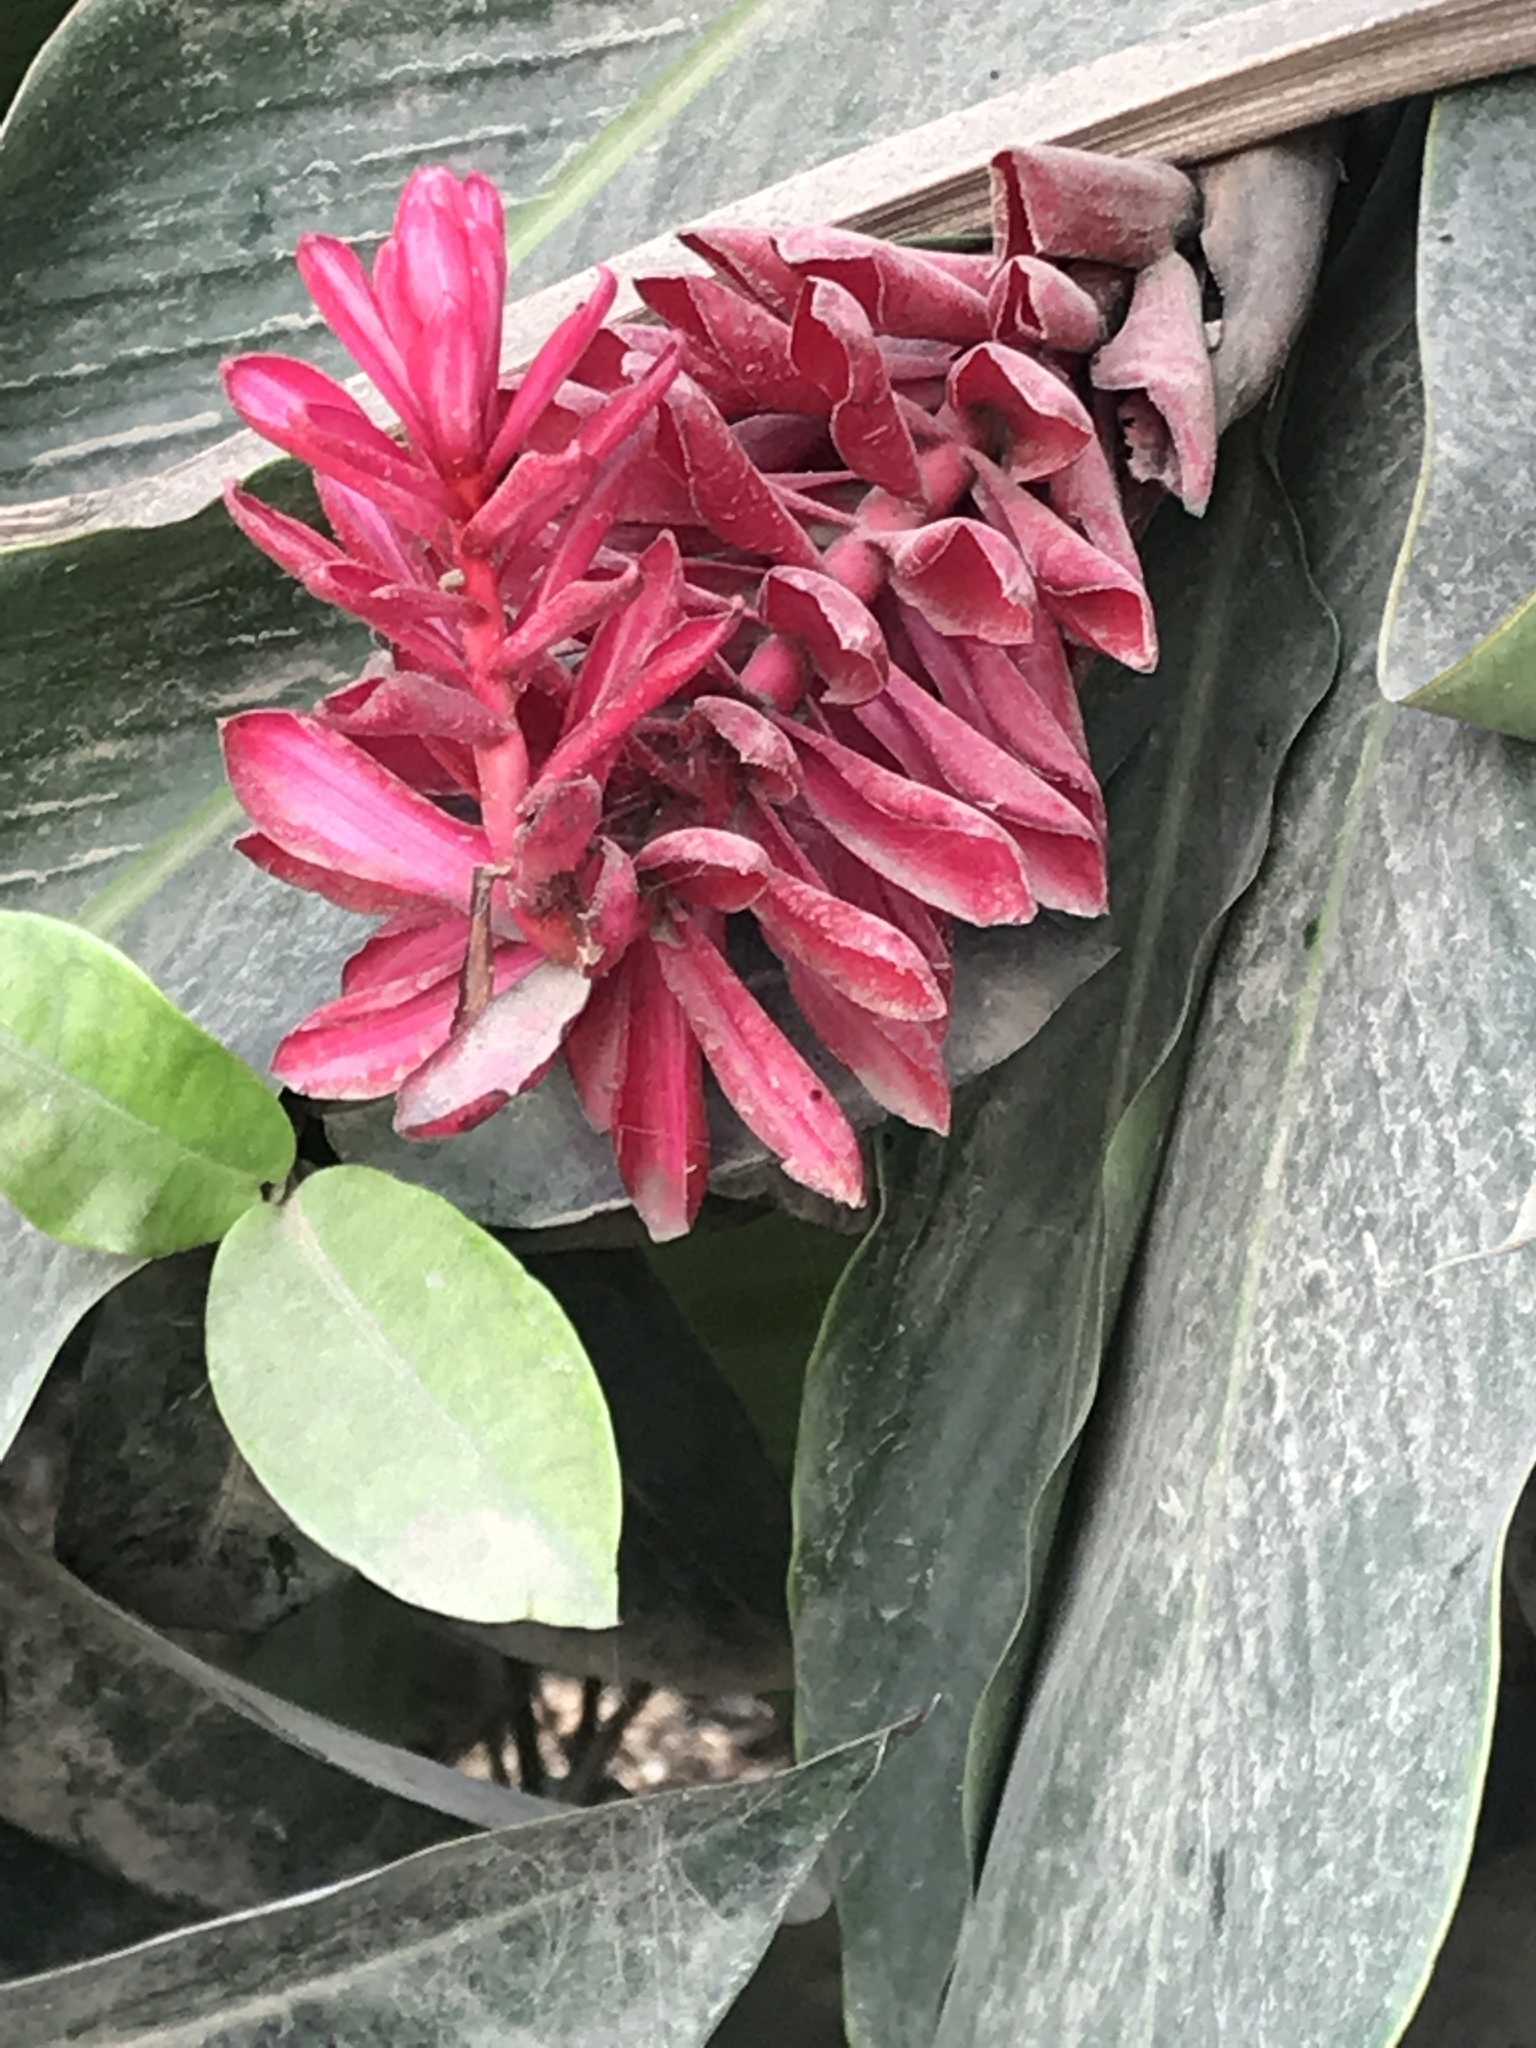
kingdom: Plantae
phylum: Tracheophyta
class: Liliopsida
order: Zingiberales
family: Zingiberaceae
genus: Alpinia
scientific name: Alpinia purpurata
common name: Red ginger
